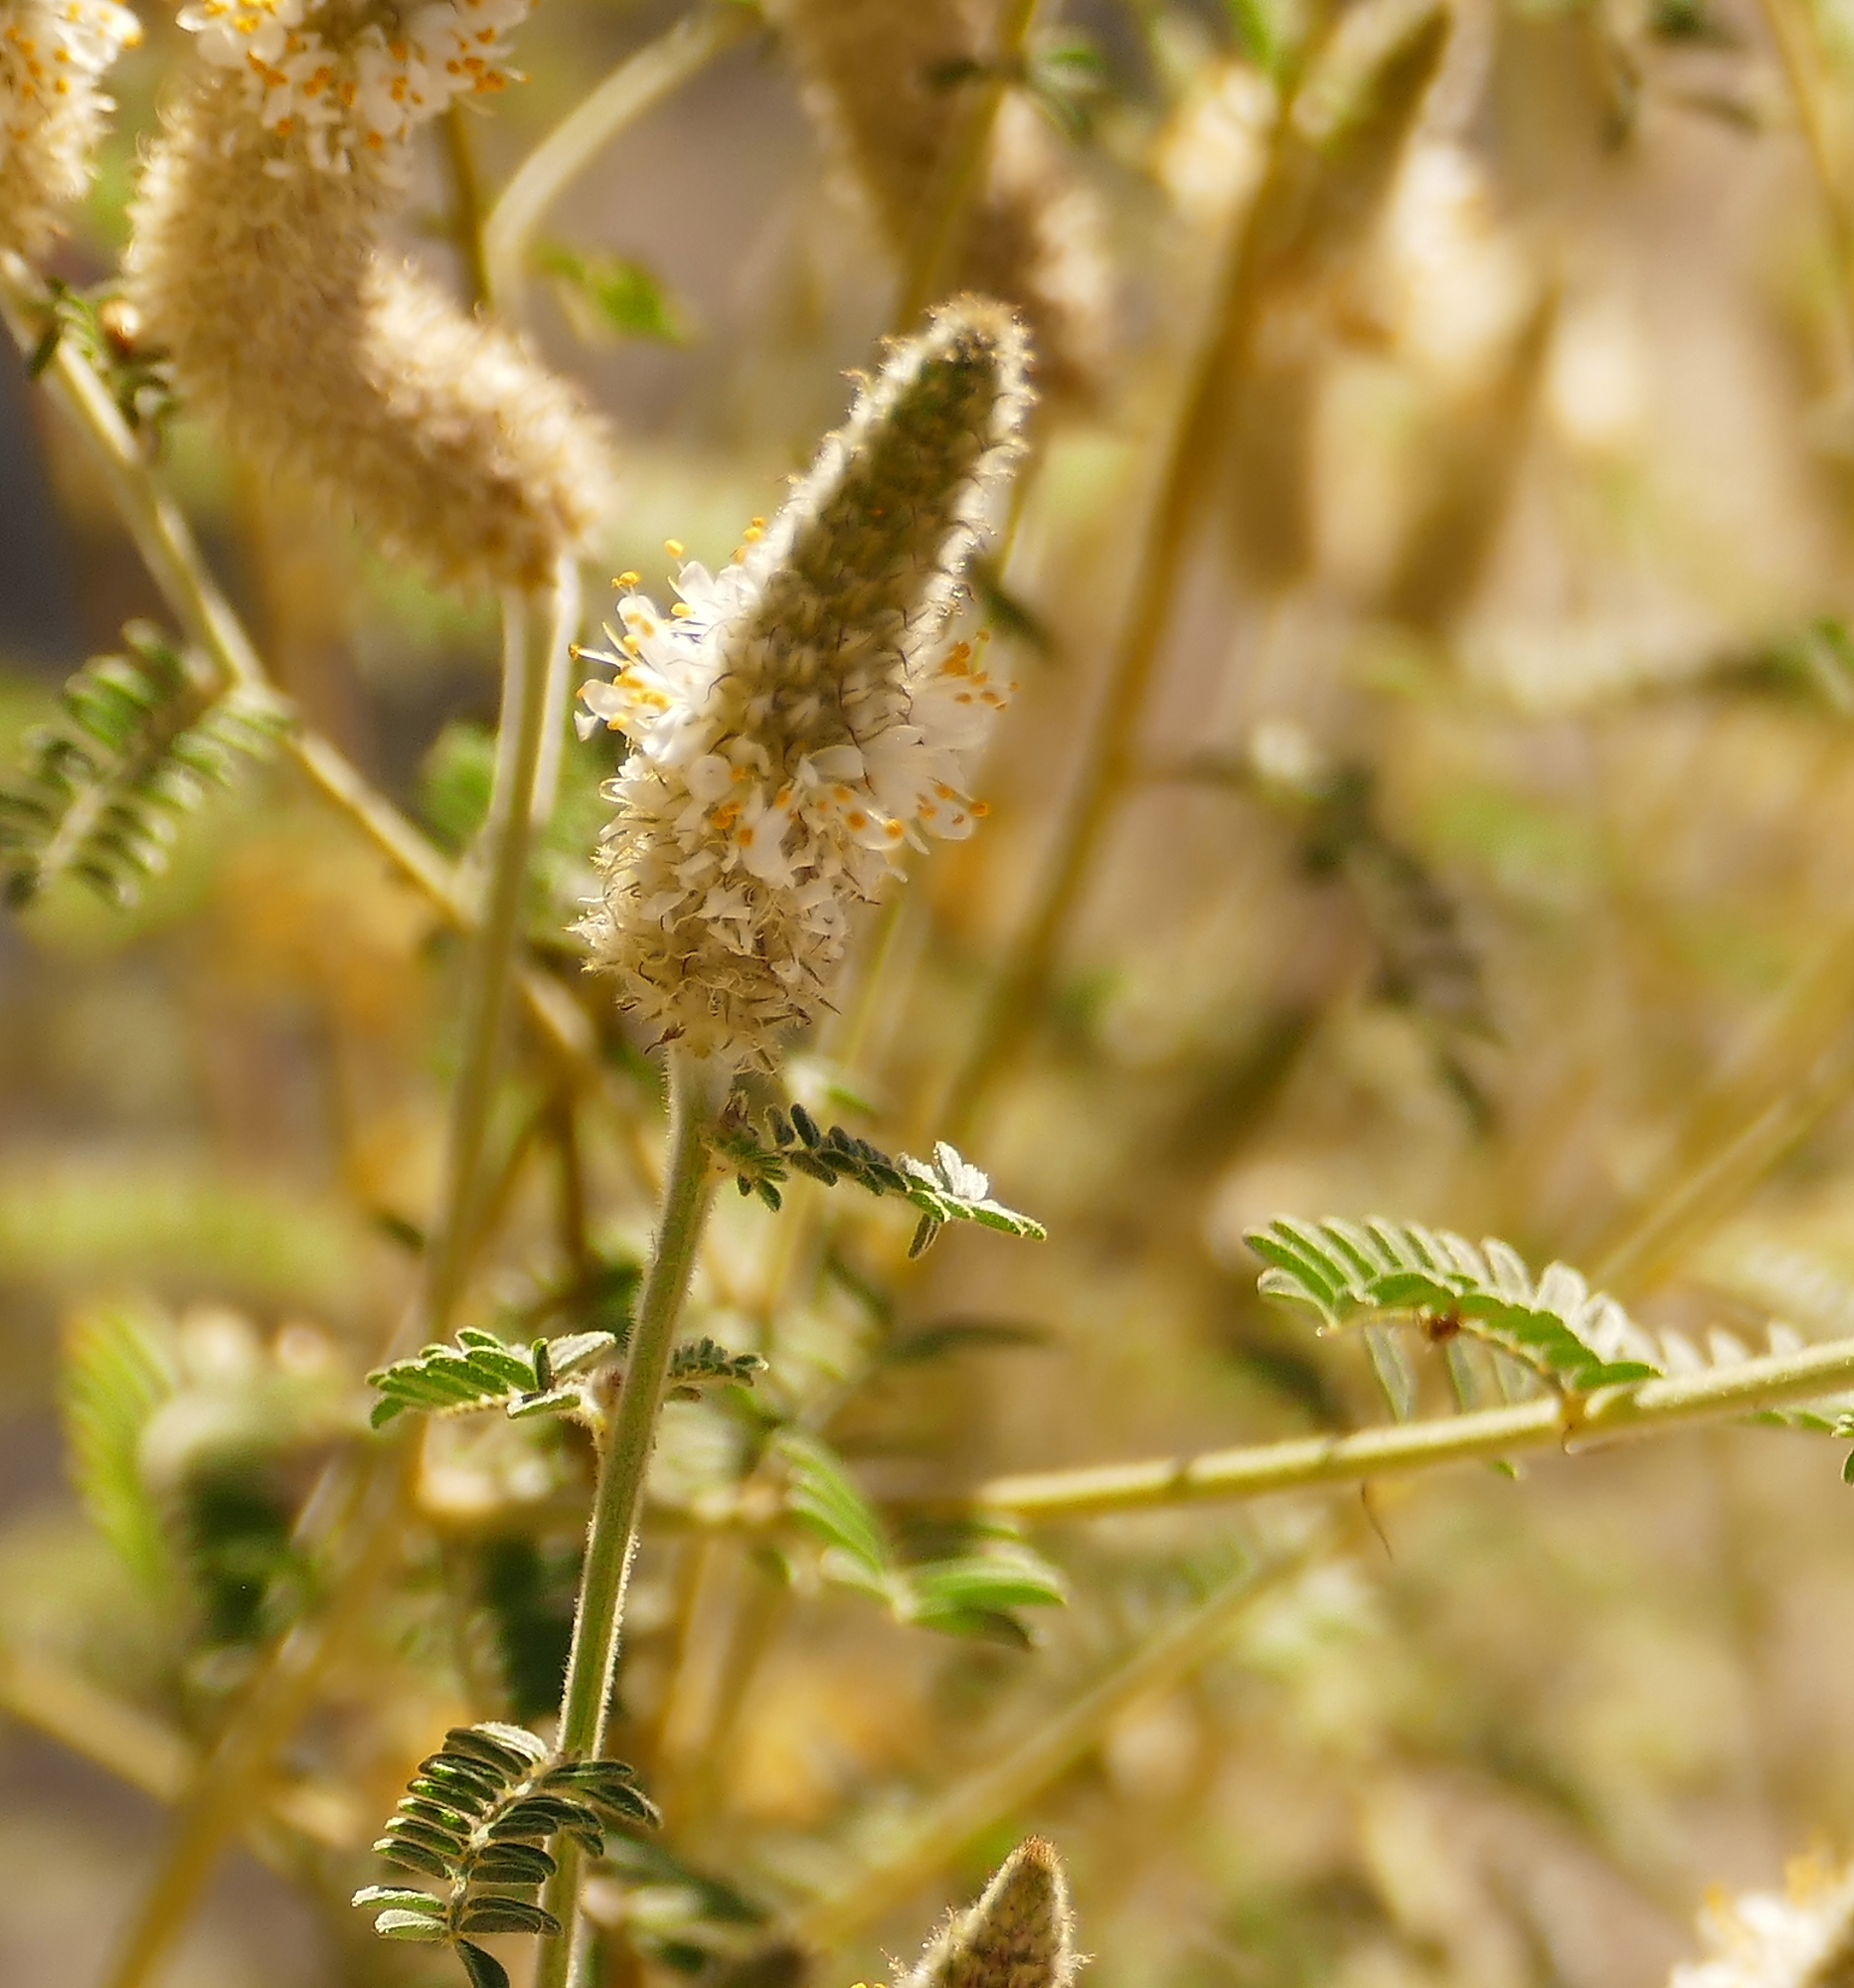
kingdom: Plantae
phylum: Tracheophyta
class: Magnoliopsida
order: Fabales
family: Fabaceae
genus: Dalea
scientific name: Dalea albiflora
